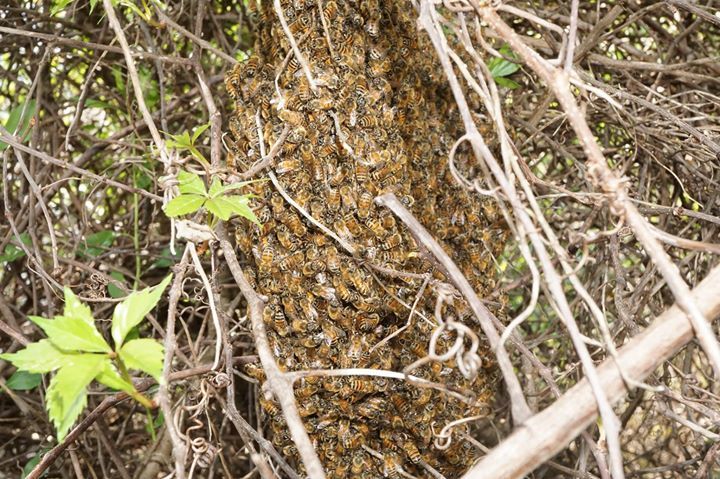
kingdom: Animalia
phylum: Arthropoda
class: Insecta
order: Hymenoptera
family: Apidae
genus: Apis
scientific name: Apis mellifera
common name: Honey bee
